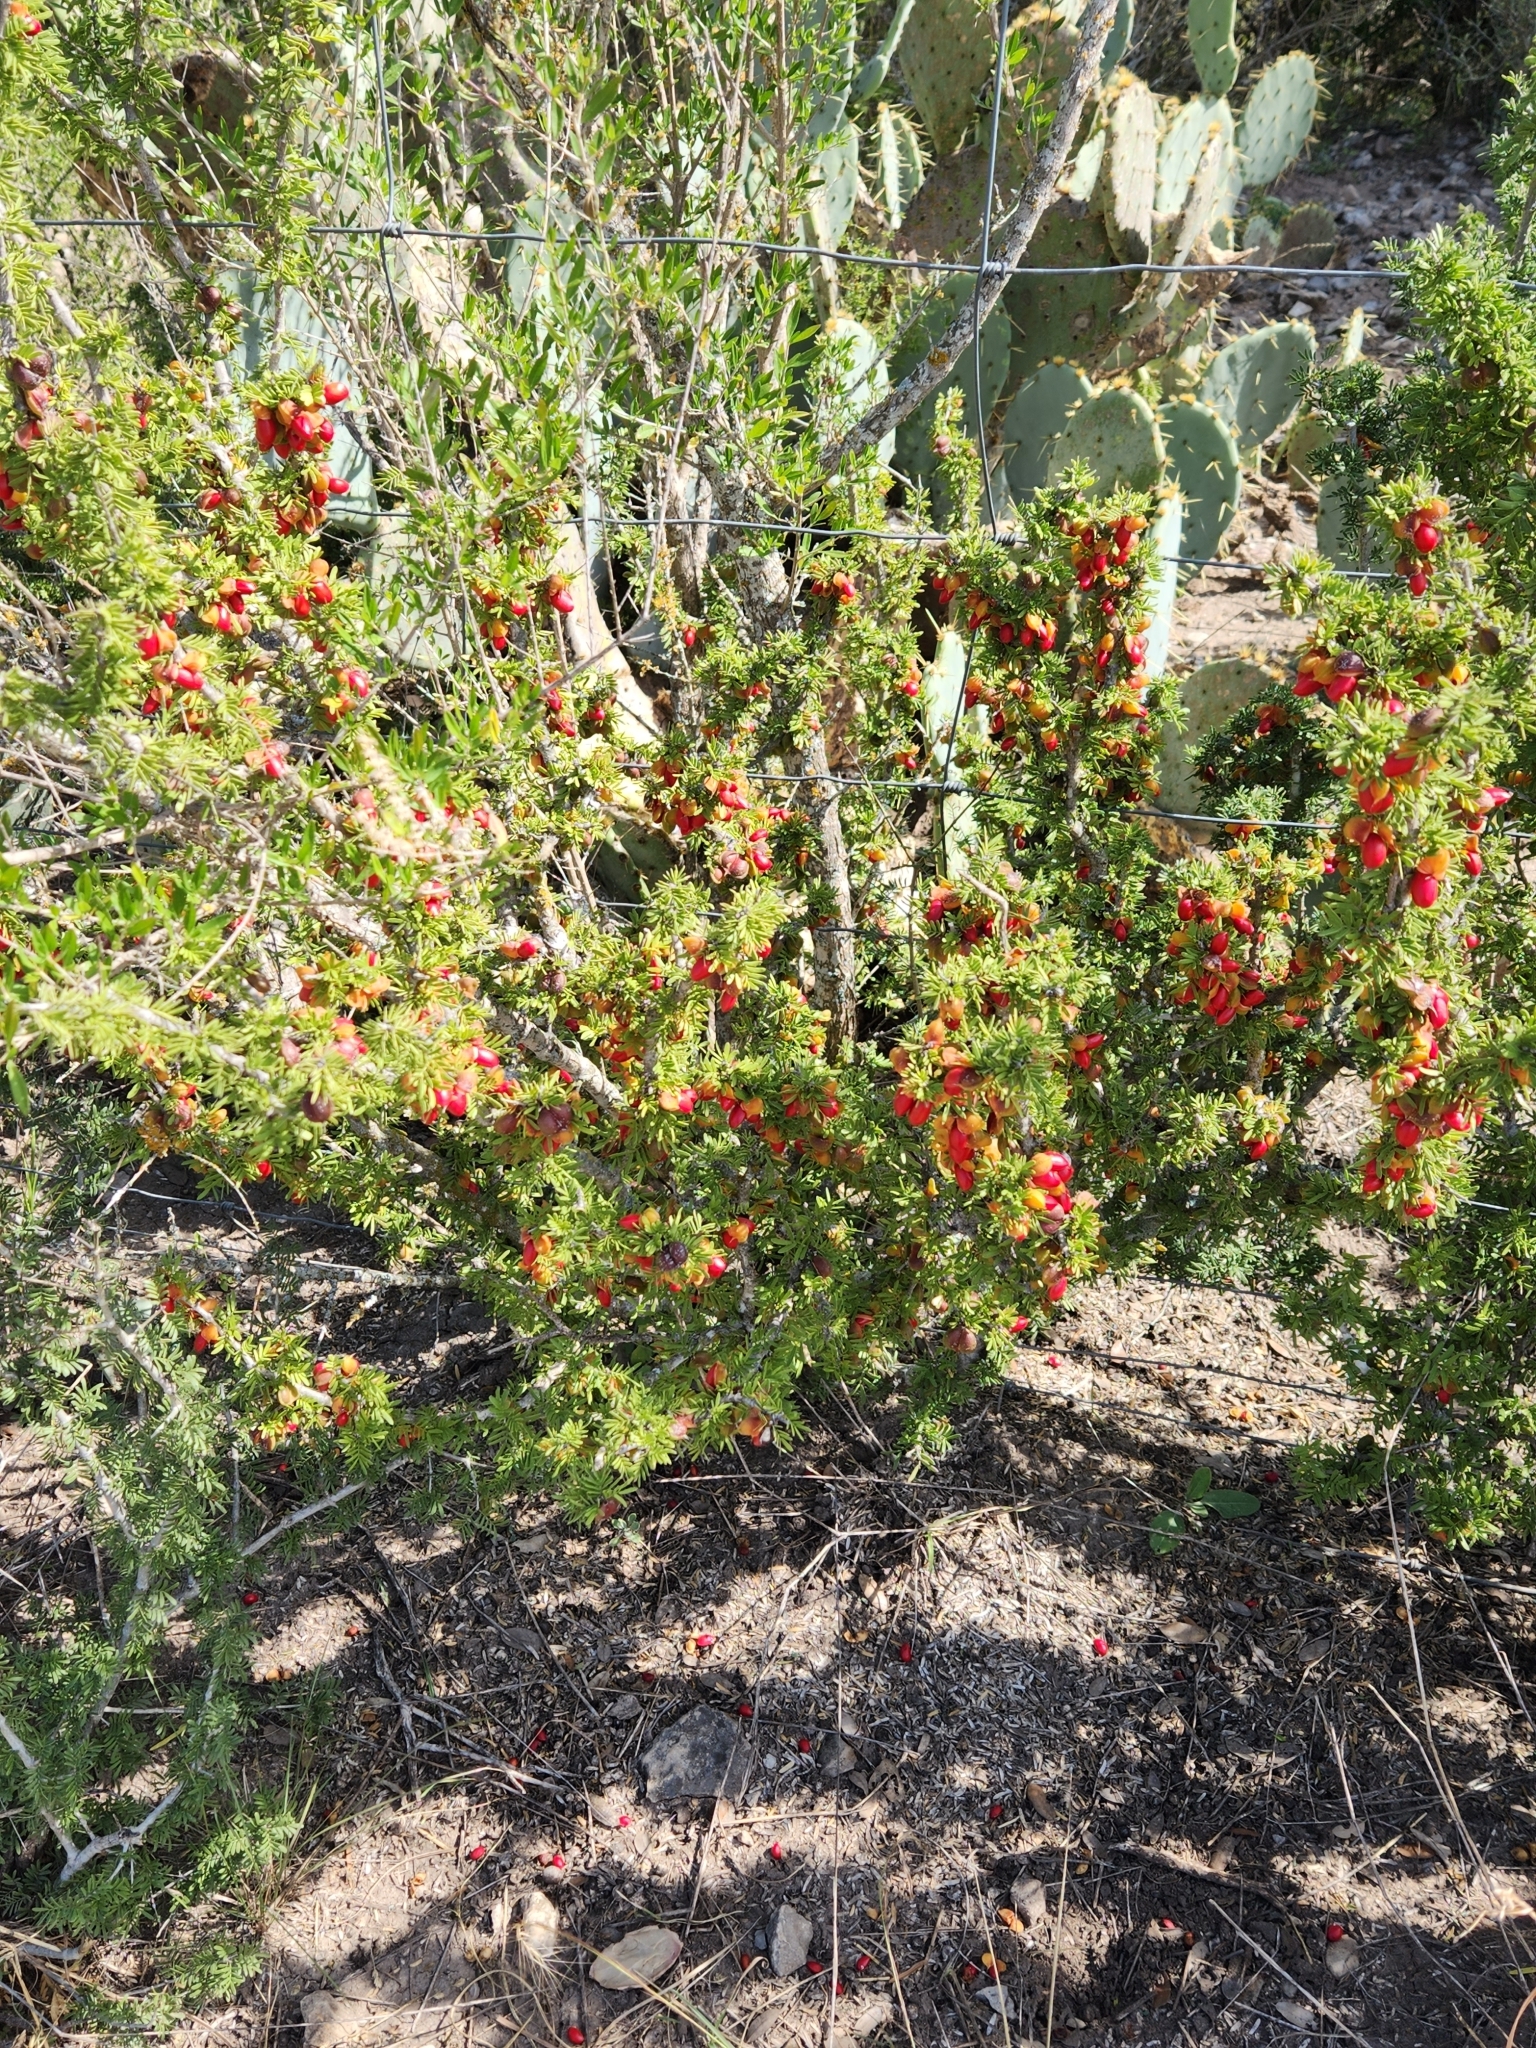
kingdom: Plantae
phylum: Tracheophyta
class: Magnoliopsida
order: Zygophyllales
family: Zygophyllaceae
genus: Porlieria
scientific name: Porlieria angustifolia
